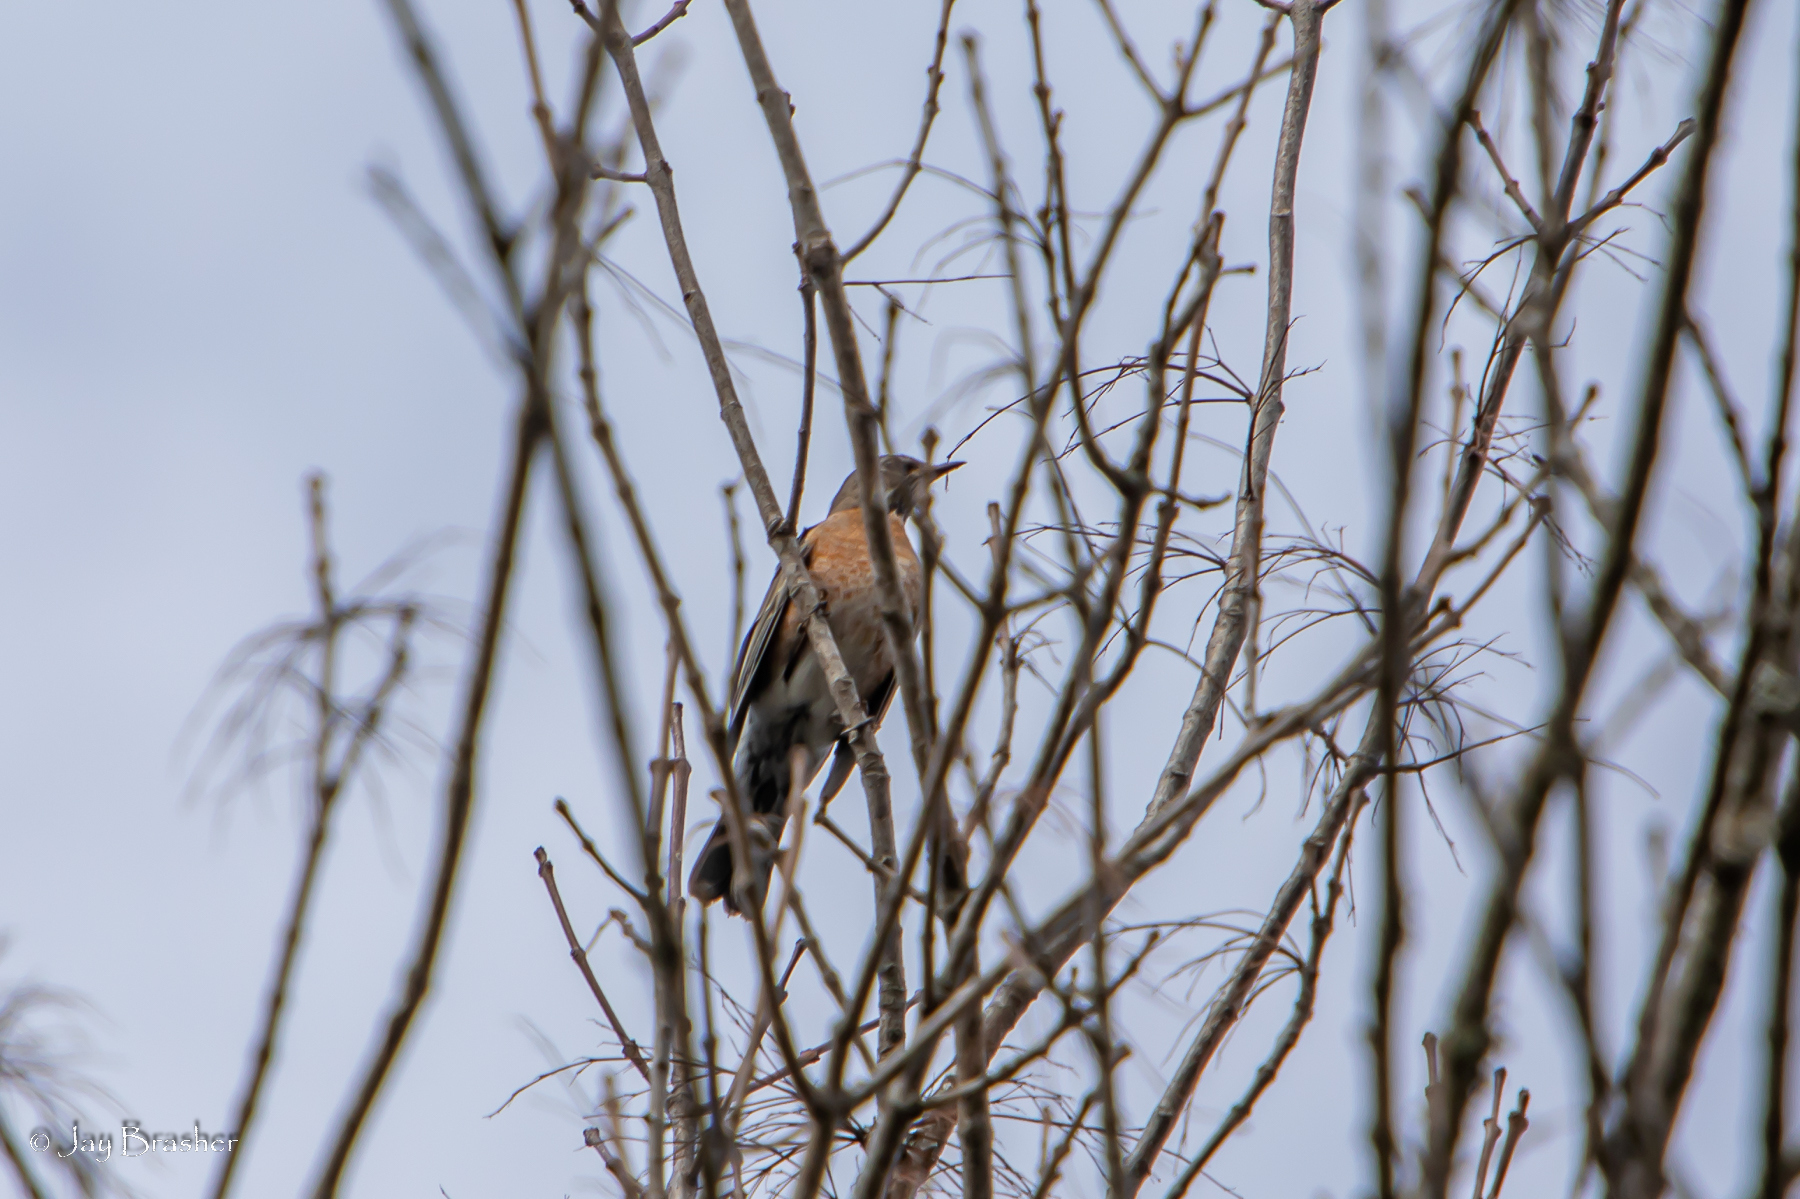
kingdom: Animalia
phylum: Chordata
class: Aves
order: Passeriformes
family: Turdidae
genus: Turdus
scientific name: Turdus migratorius
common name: American robin
